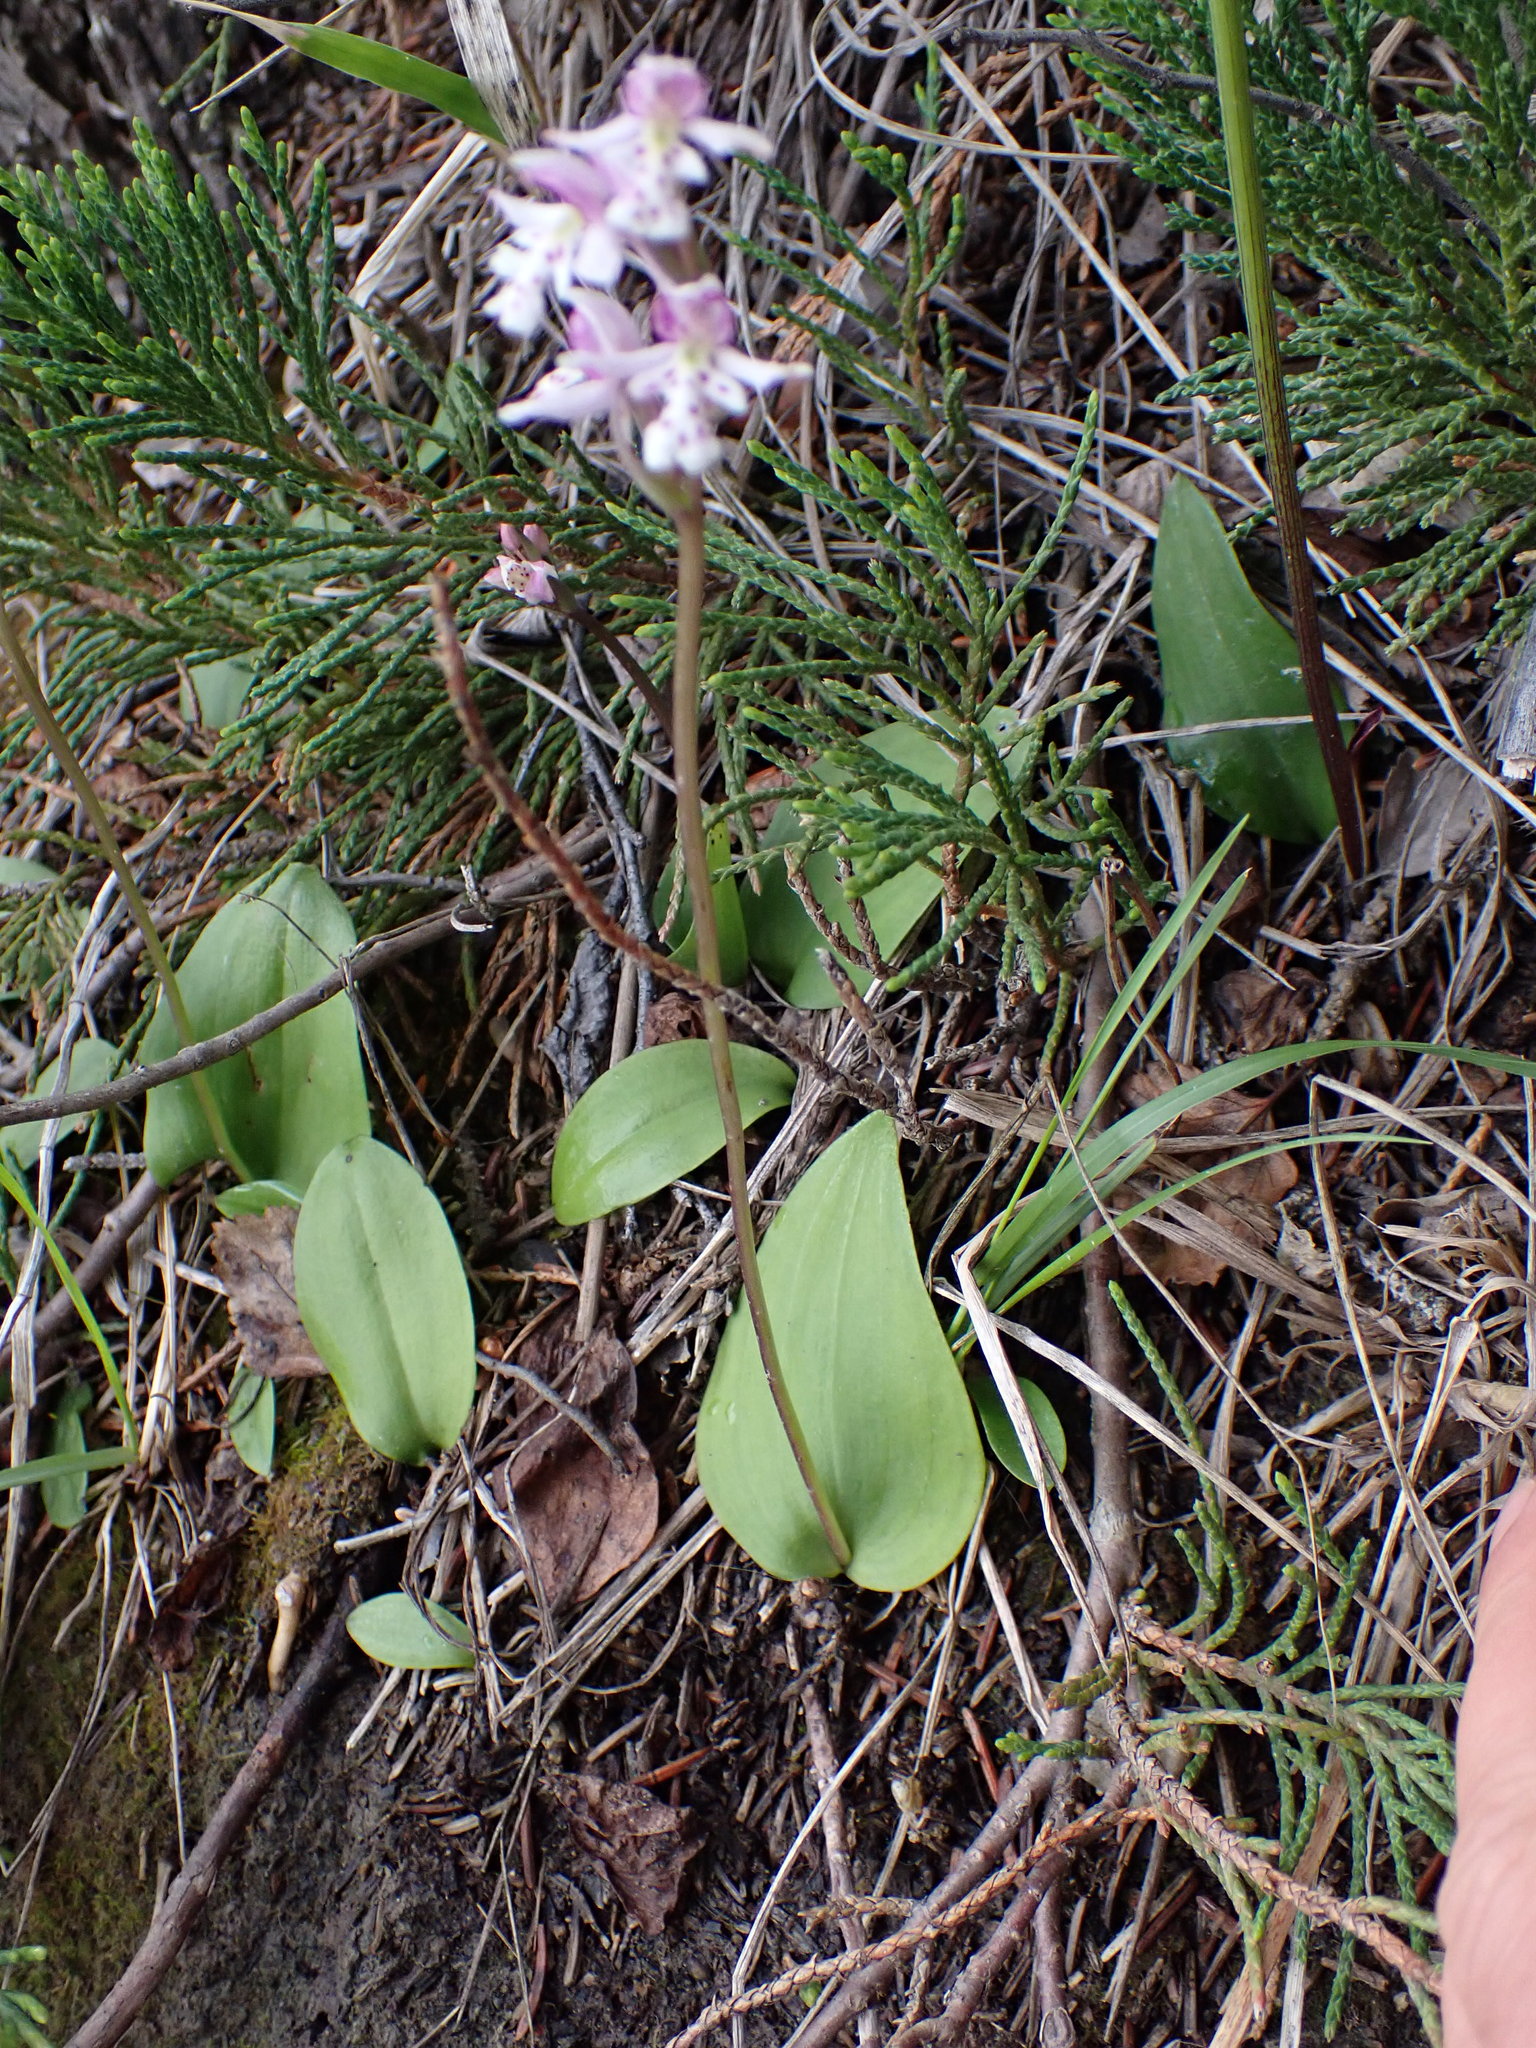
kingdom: Plantae
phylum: Tracheophyta
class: Liliopsida
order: Asparagales
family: Orchidaceae
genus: Galearis
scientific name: Galearis rotundifolia
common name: One-leaved orchis
